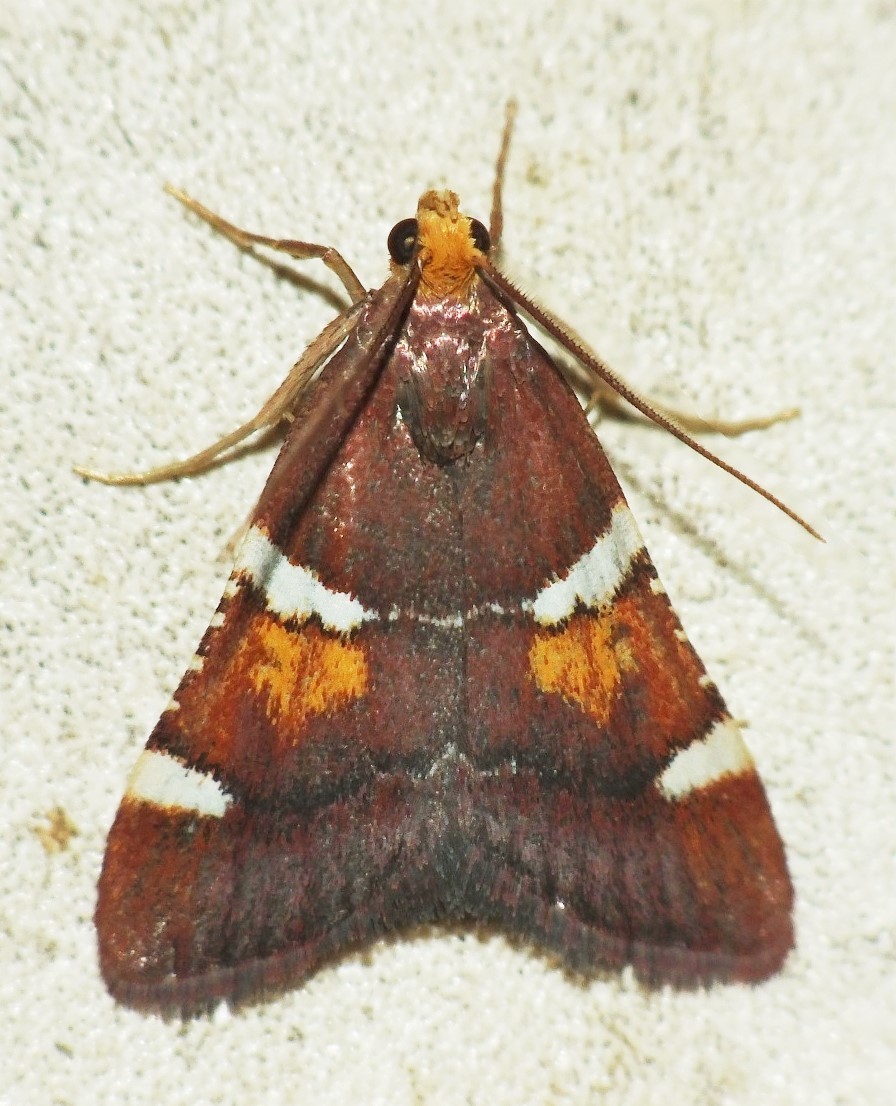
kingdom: Animalia
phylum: Arthropoda
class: Insecta
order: Lepidoptera
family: Pyralidae
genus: Pyralis
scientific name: Pyralis regalis
